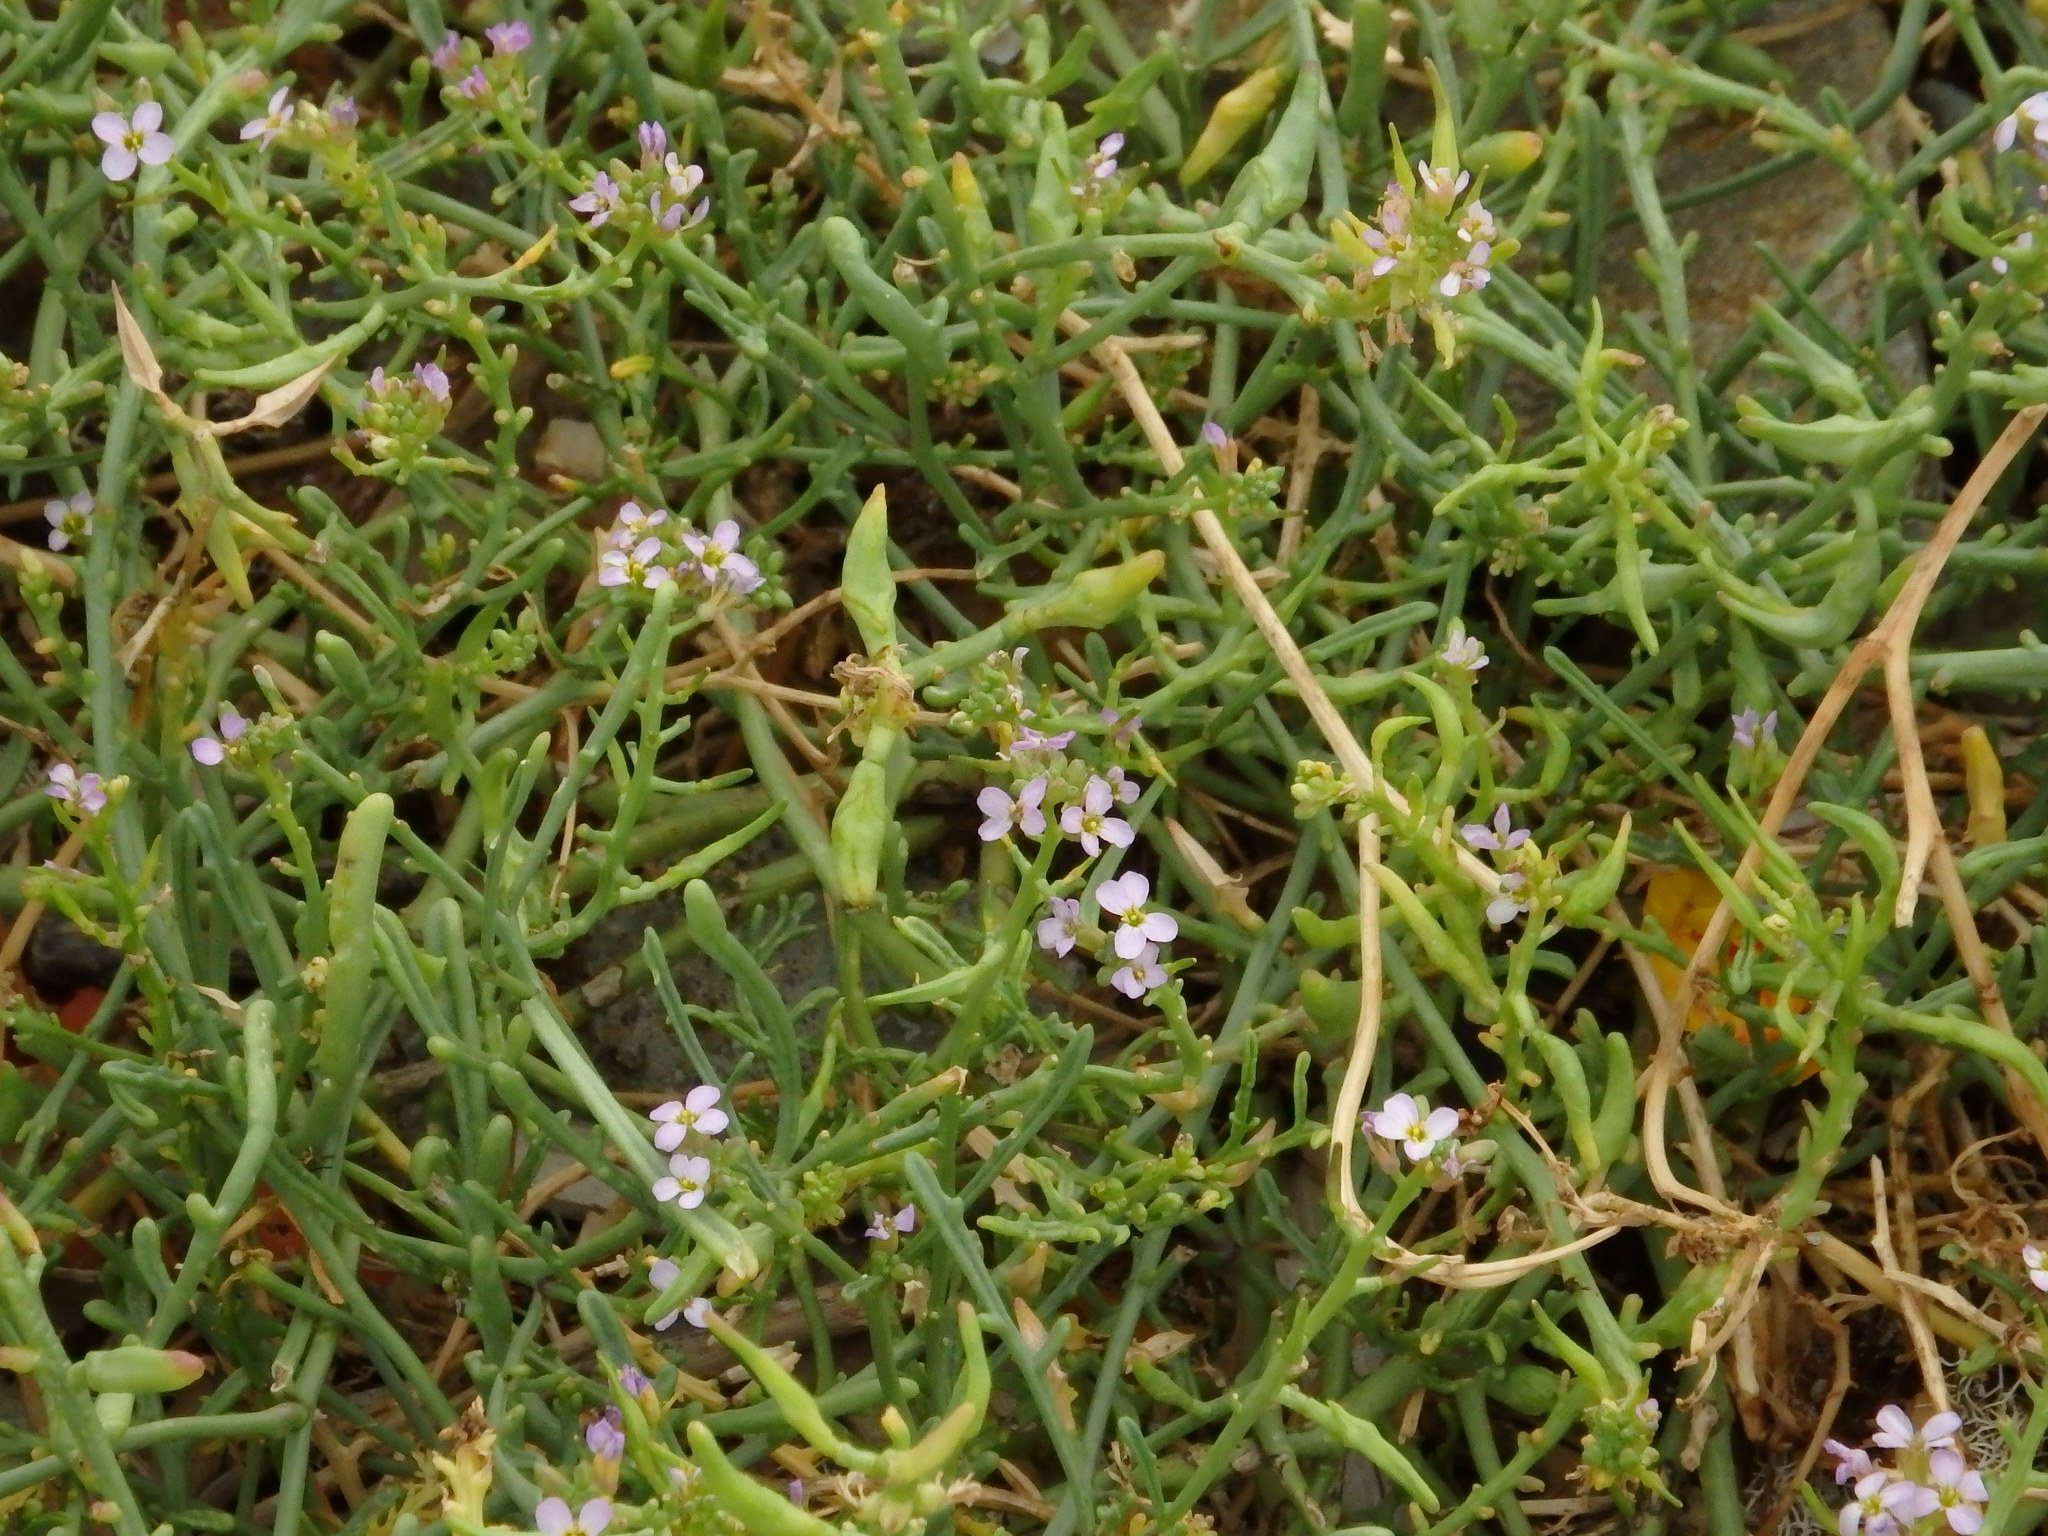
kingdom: Plantae
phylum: Tracheophyta
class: Magnoliopsida
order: Brassicales
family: Brassicaceae
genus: Cakile
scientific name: Cakile maritima
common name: Sea rocket
